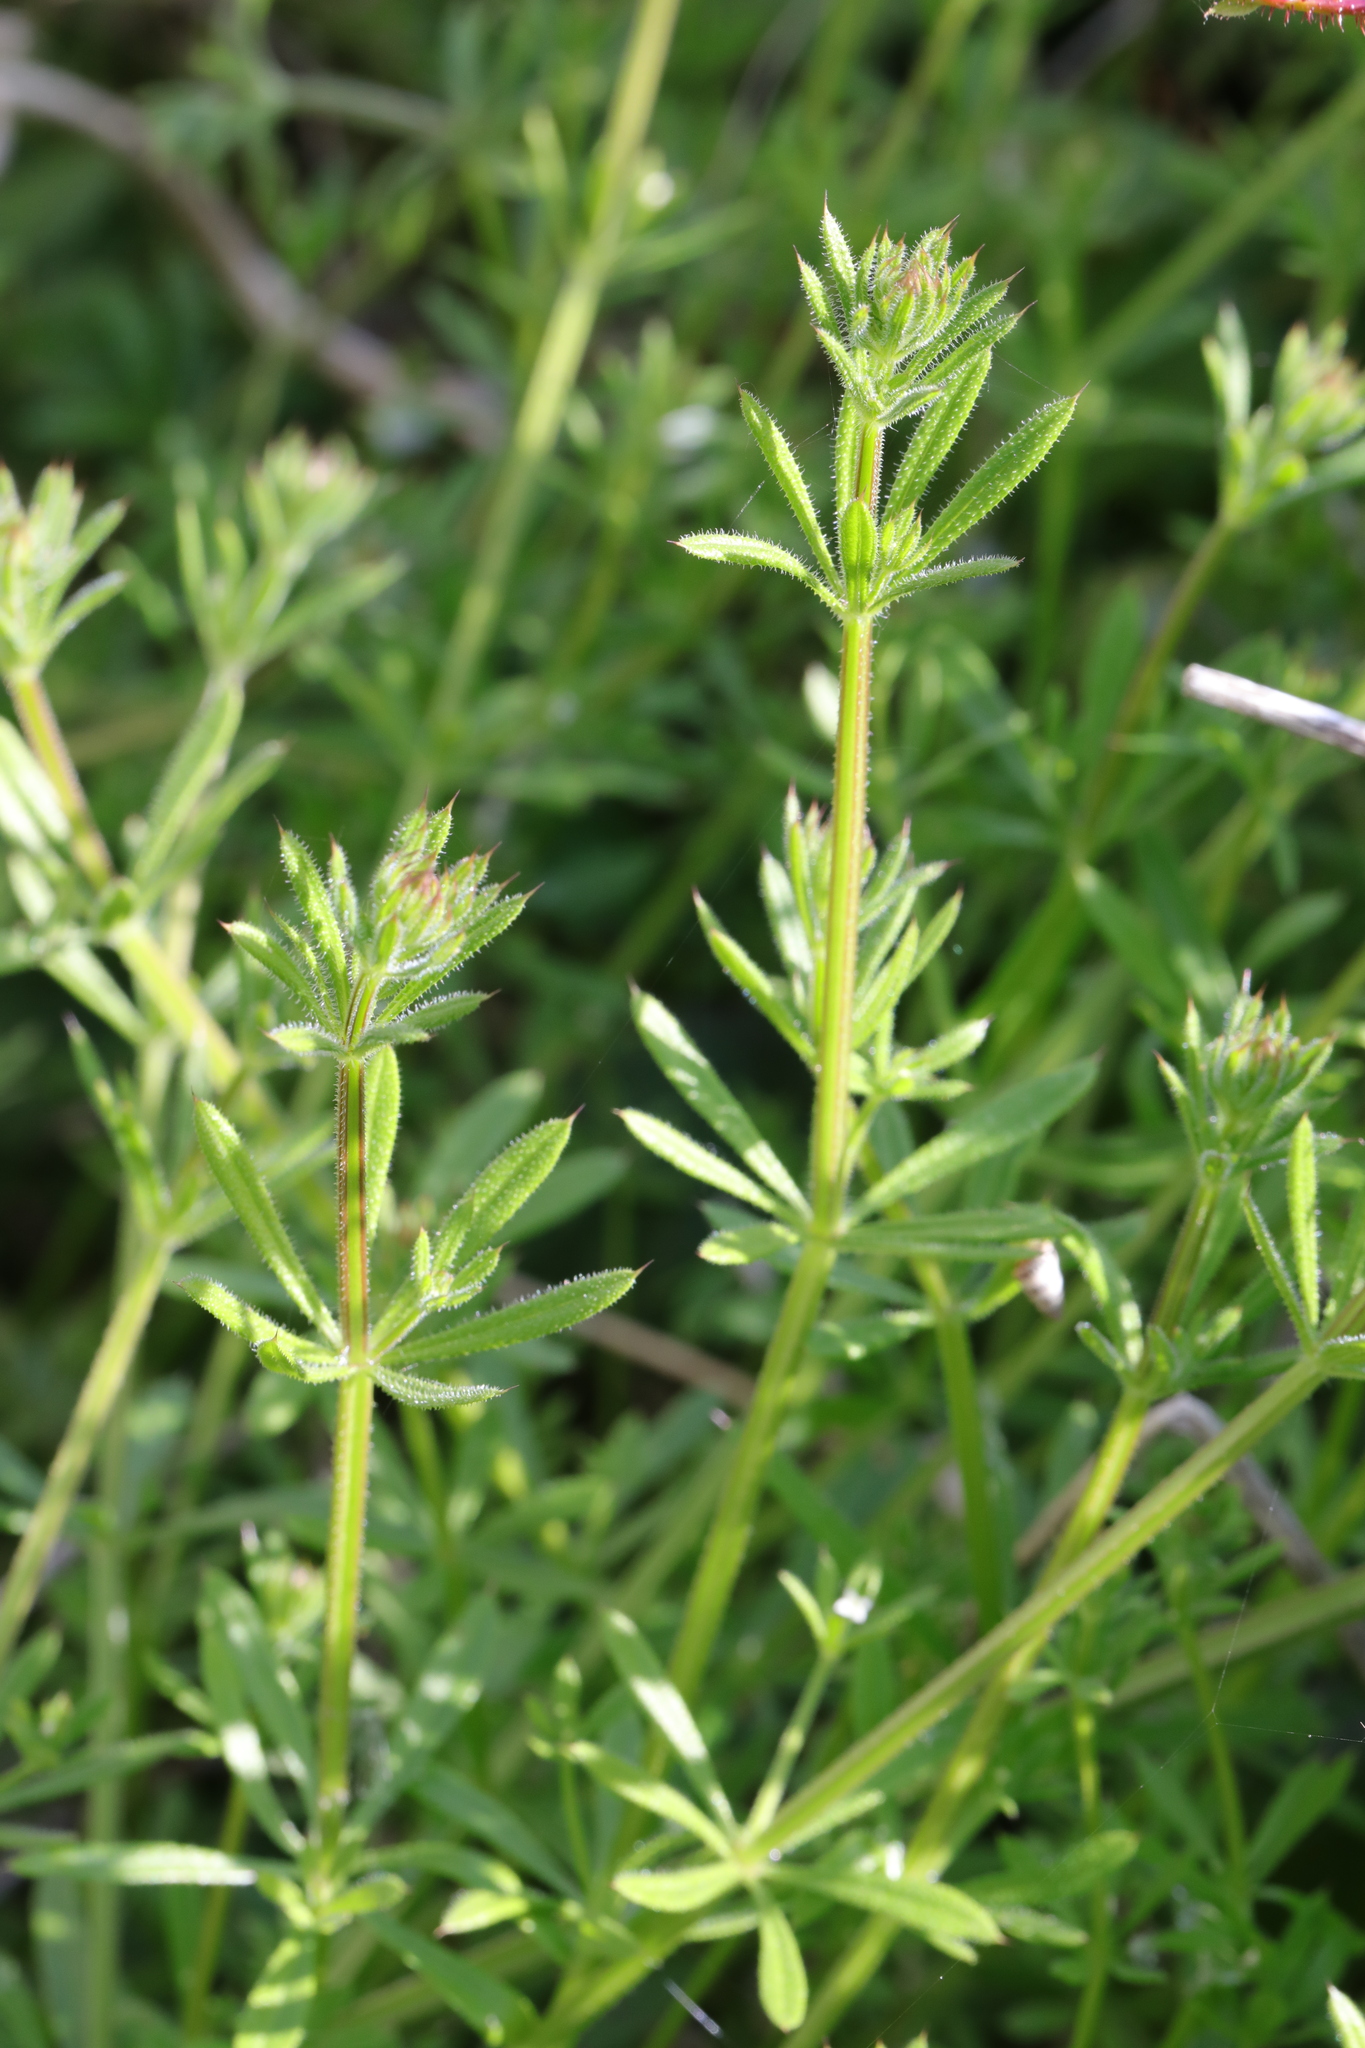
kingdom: Plantae
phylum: Tracheophyta
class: Magnoliopsida
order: Gentianales
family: Rubiaceae
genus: Galium
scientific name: Galium aparine
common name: Cleavers
